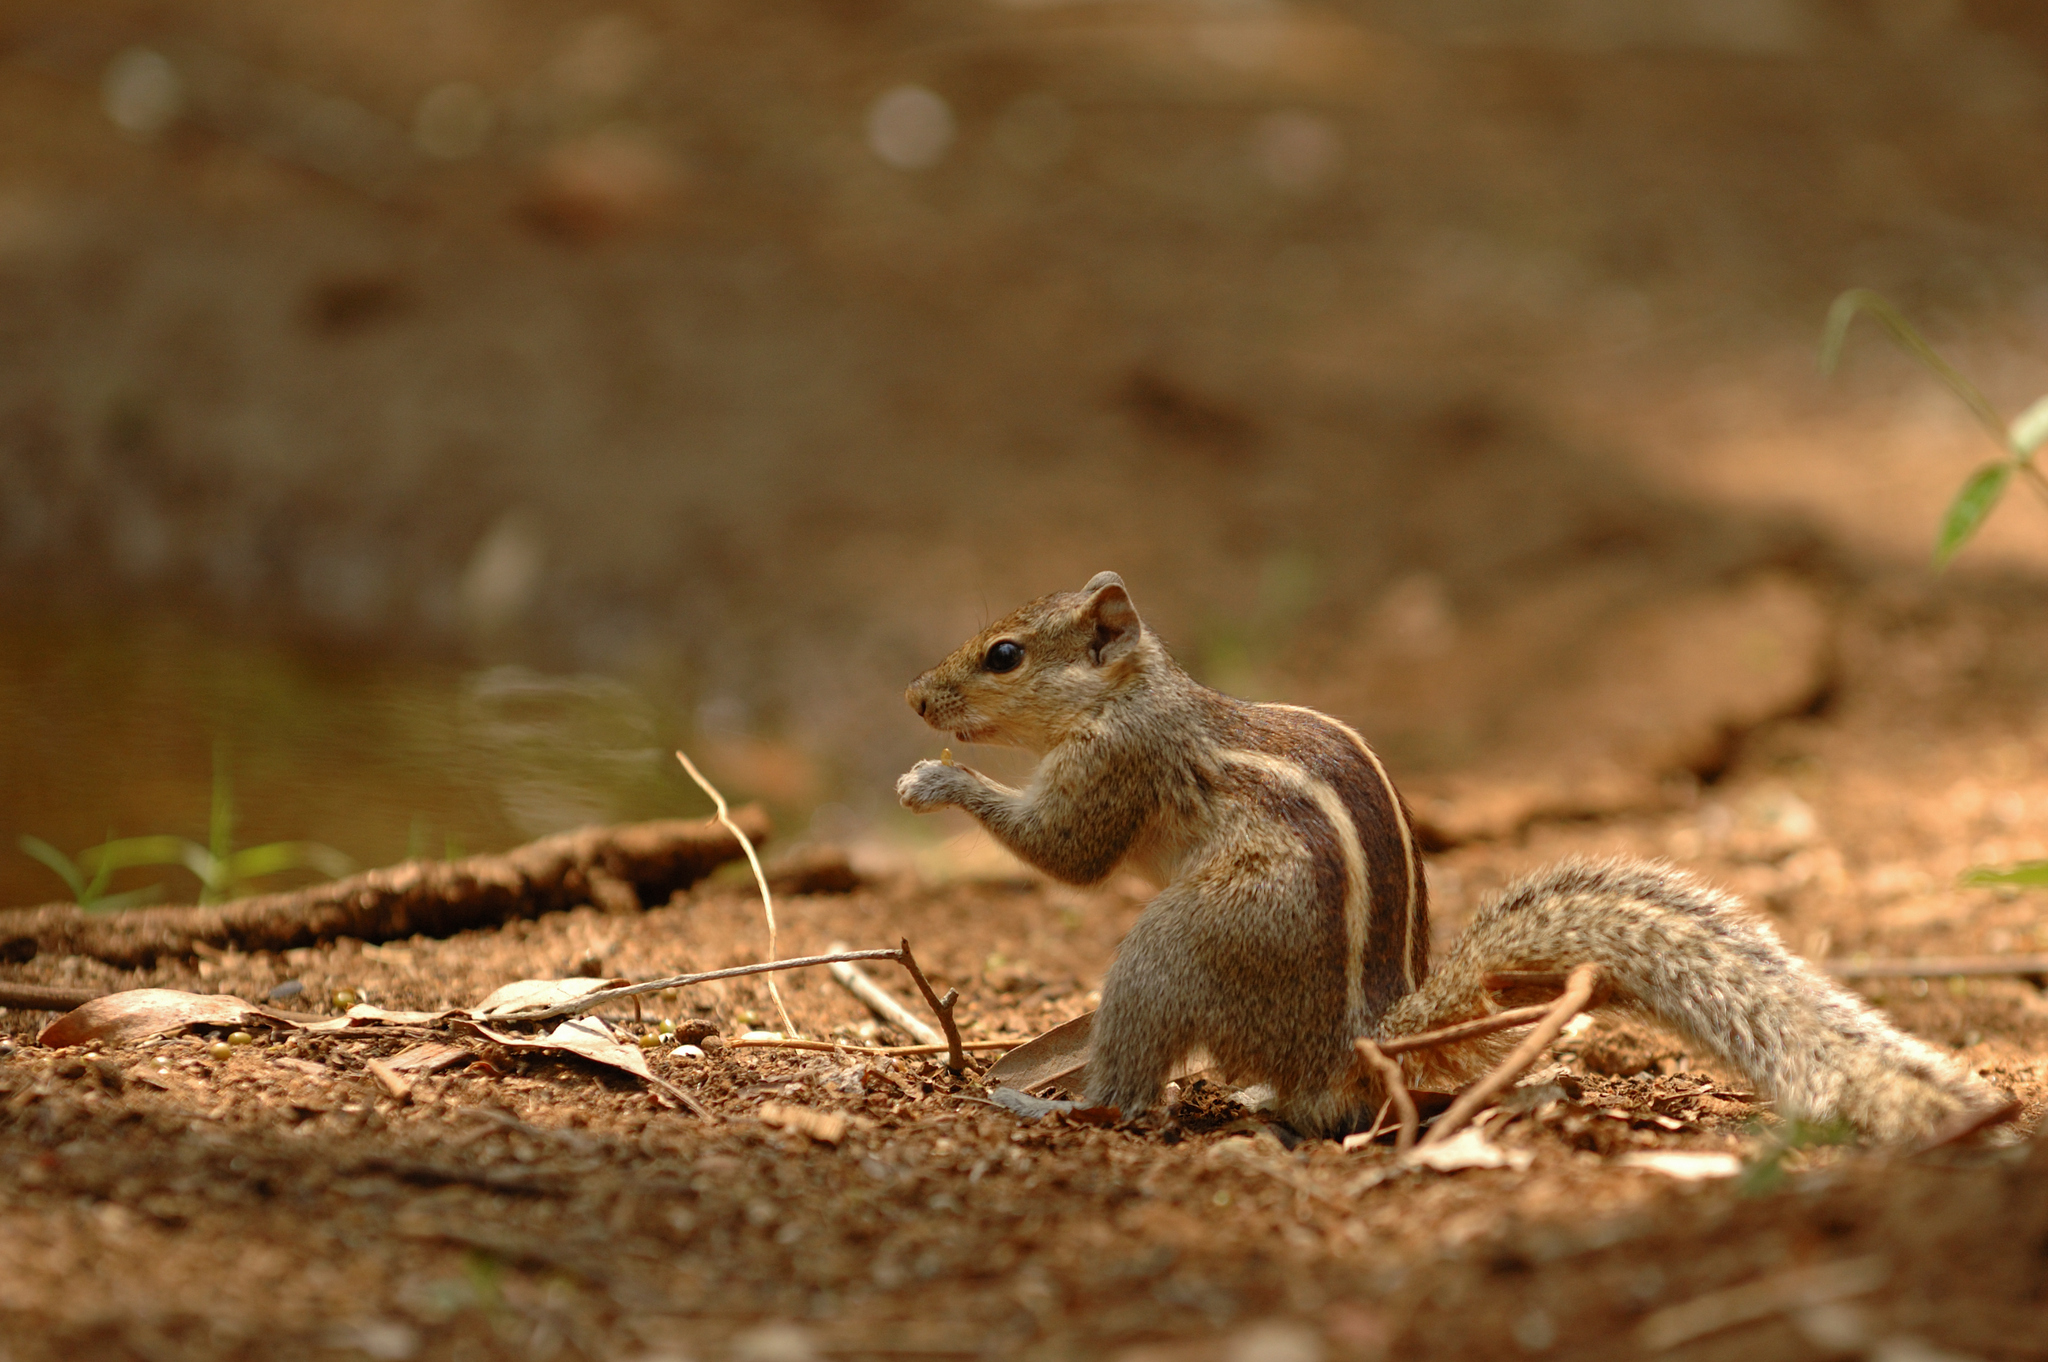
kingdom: Animalia
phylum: Chordata
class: Mammalia
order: Rodentia
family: Sciuridae
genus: Funambulus
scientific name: Funambulus palmarum
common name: Indian palm squirrel
